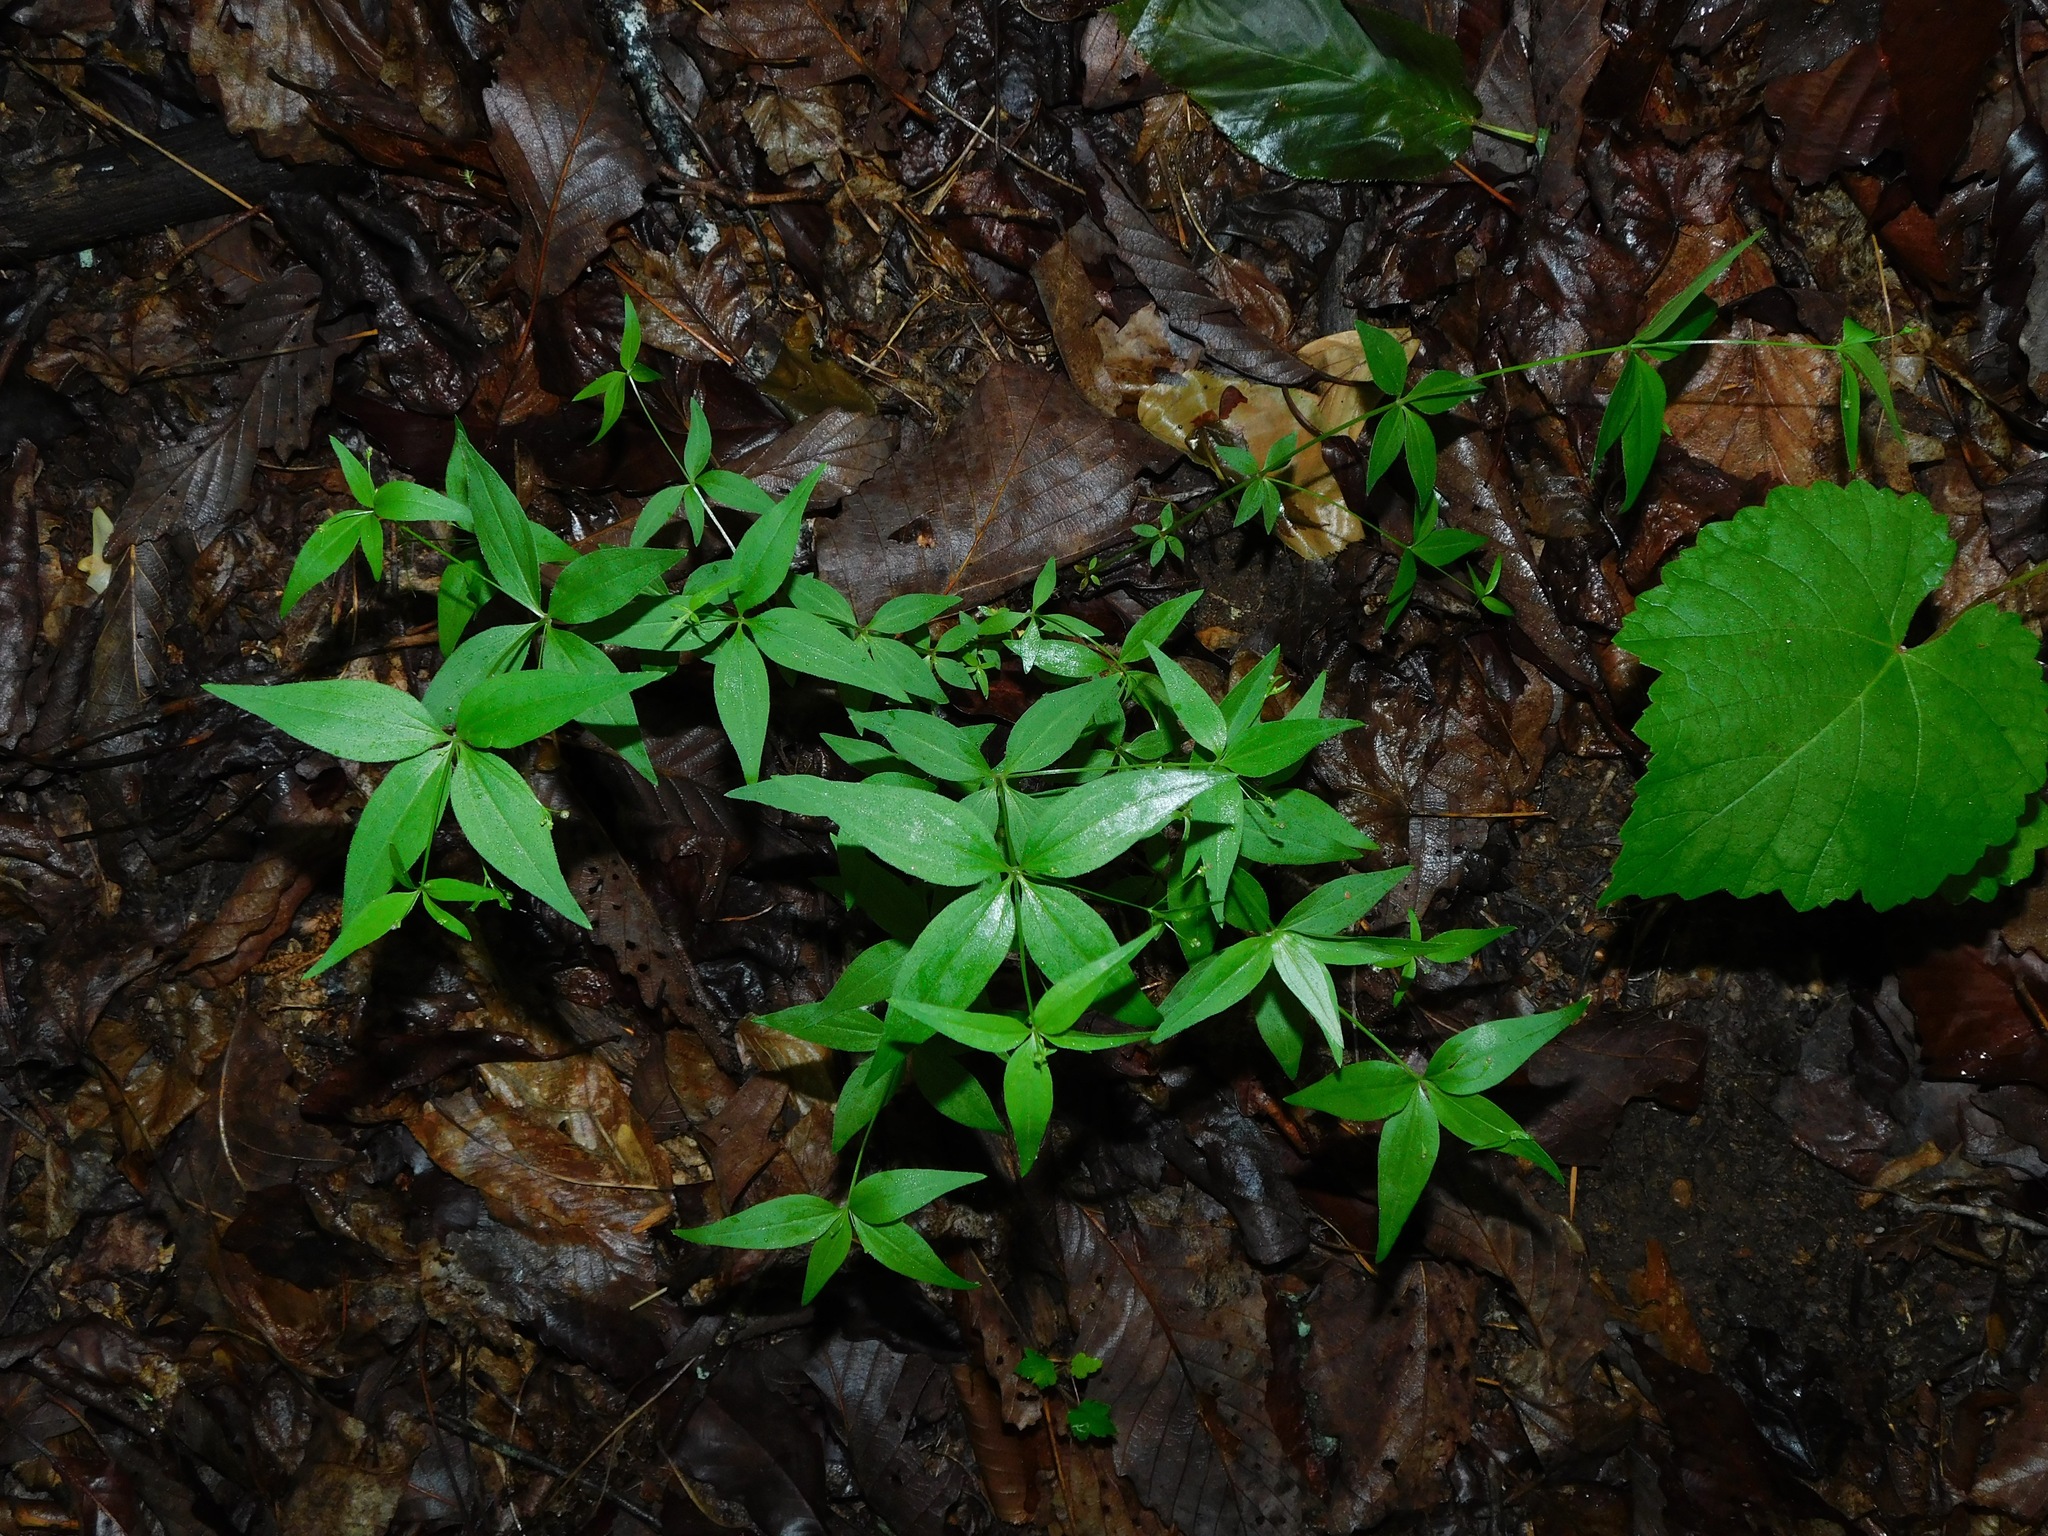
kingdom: Plantae
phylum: Tracheophyta
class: Magnoliopsida
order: Ericales
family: Primulaceae
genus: Lysimachia
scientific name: Lysimachia tonsa
